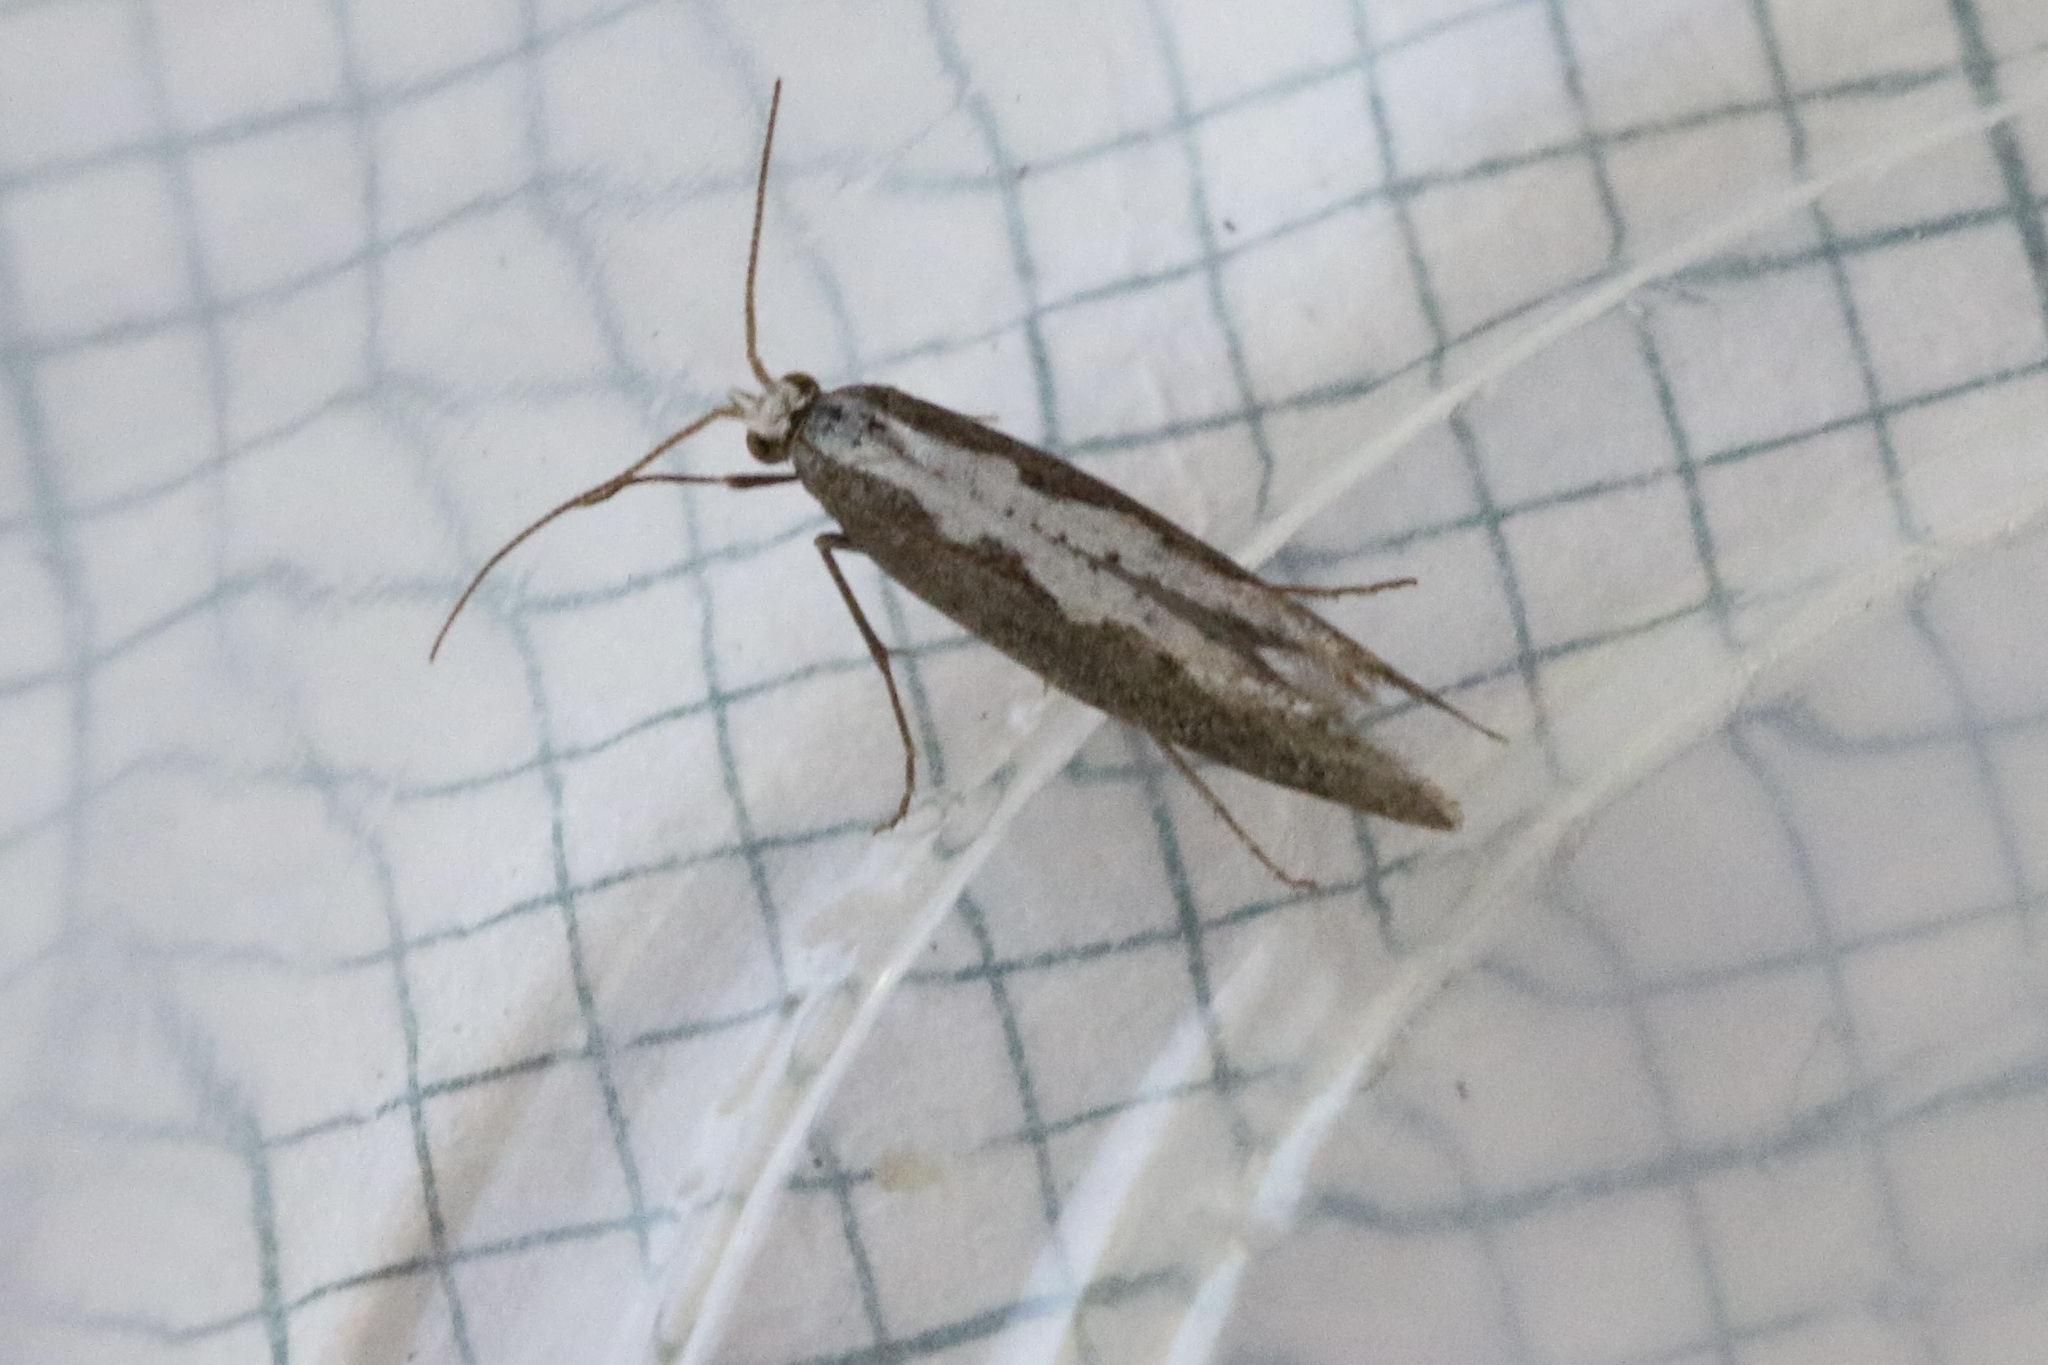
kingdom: Animalia
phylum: Arthropoda
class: Insecta
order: Lepidoptera
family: Plutellidae
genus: Plutella
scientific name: Plutella xylostella
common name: Diamond-back moth
